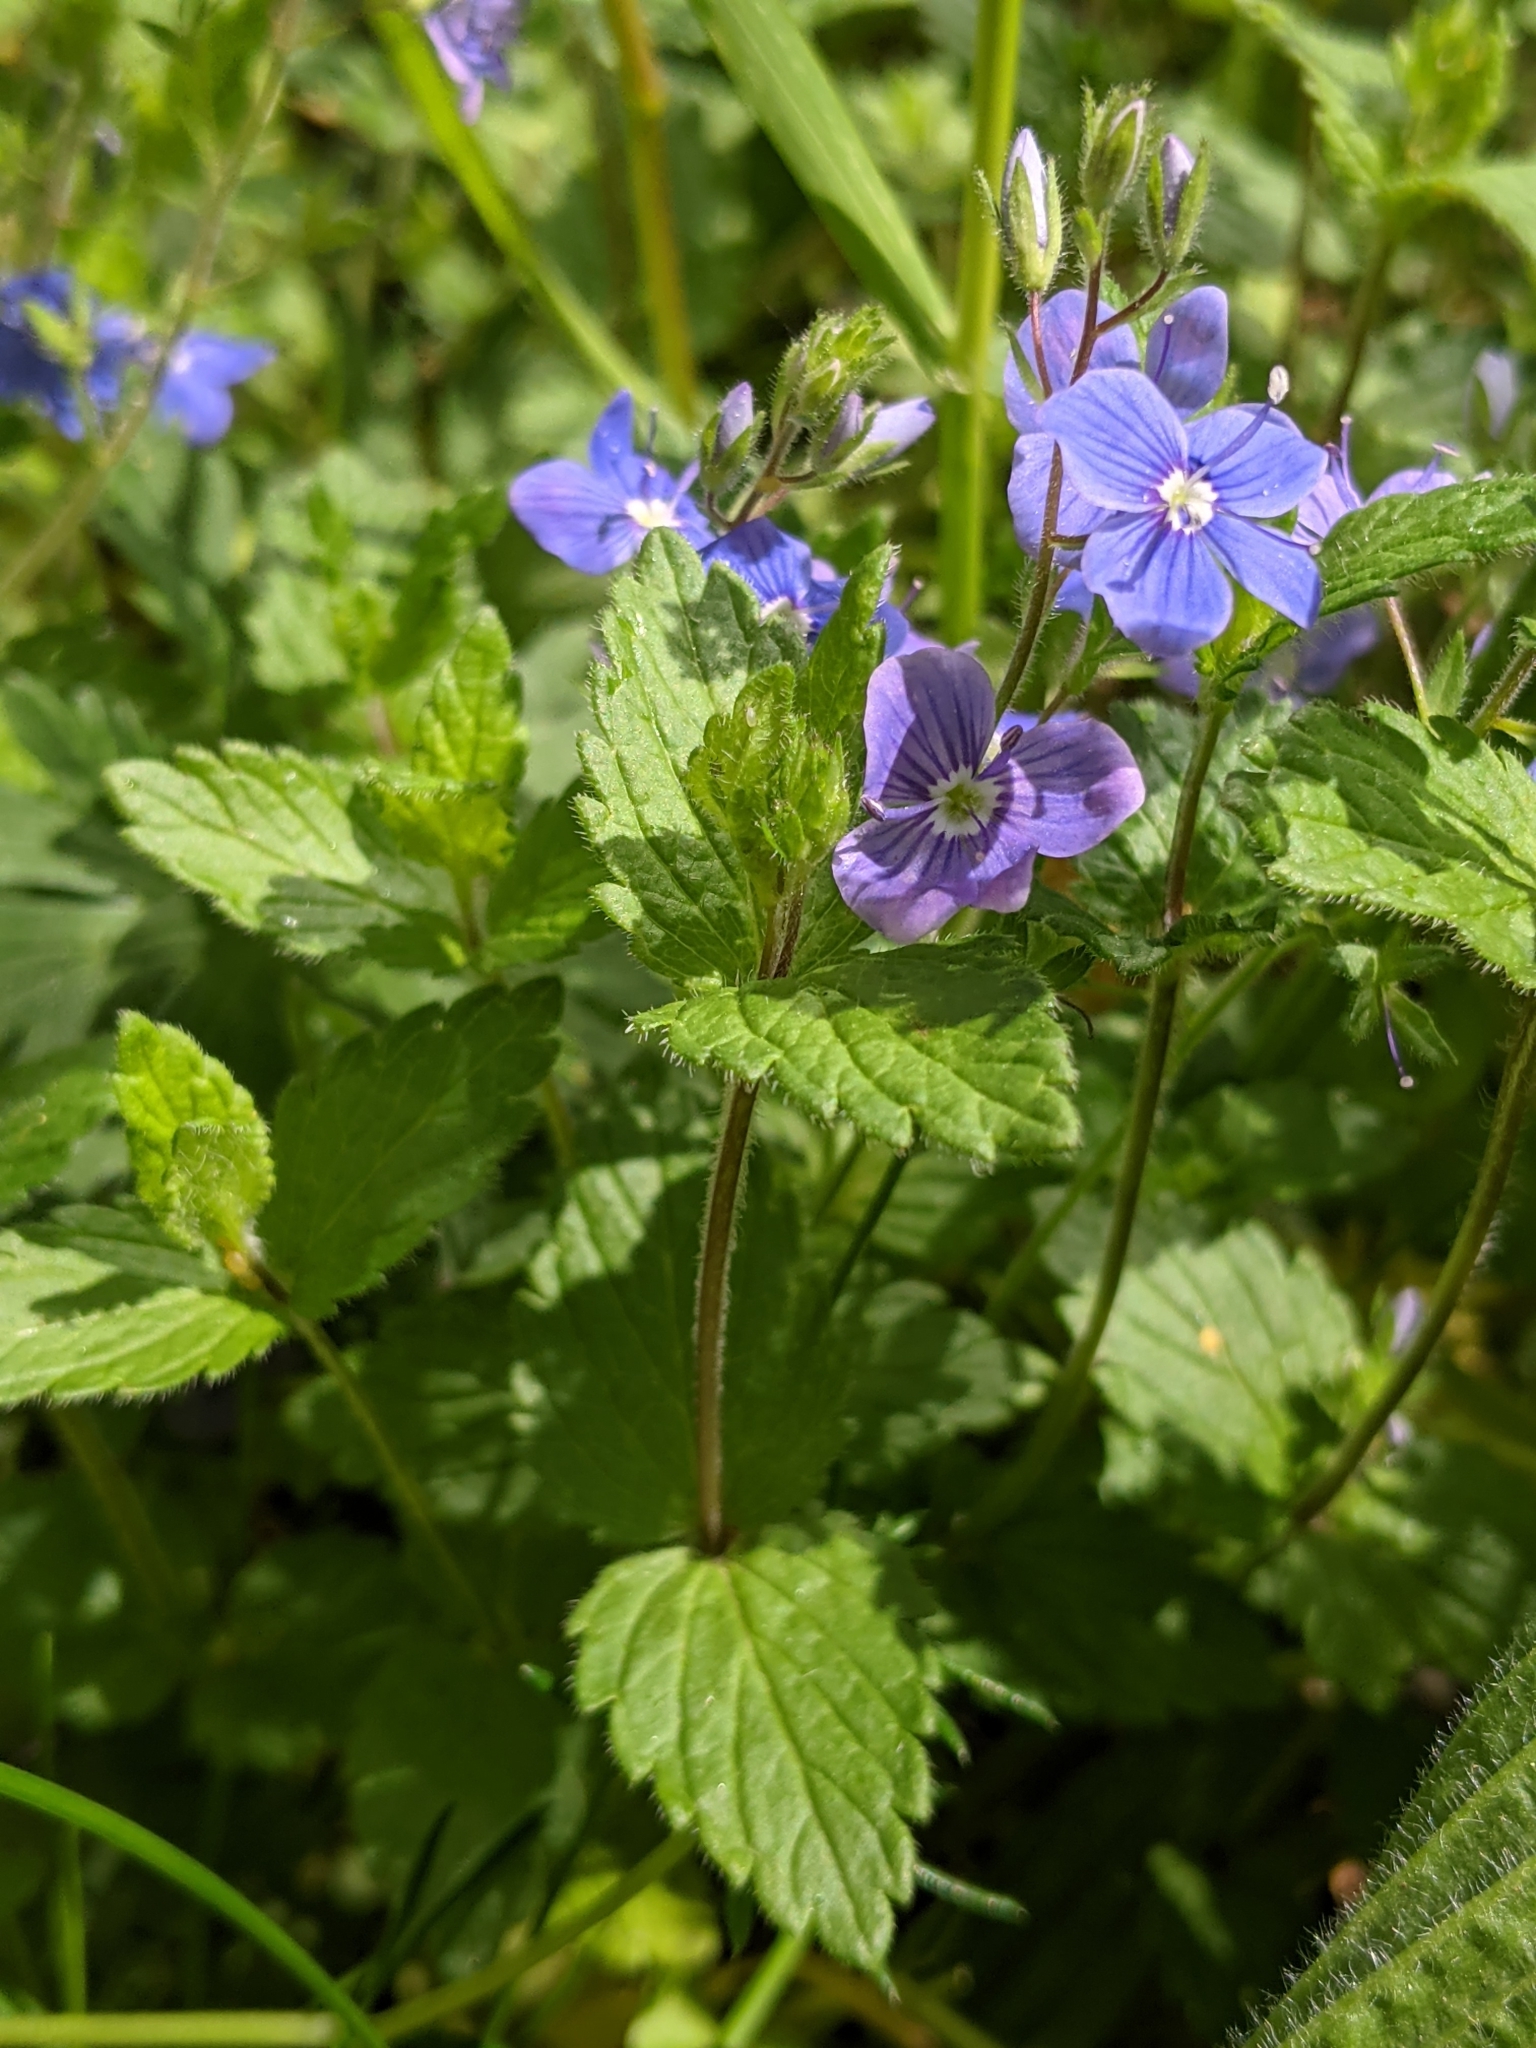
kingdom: Plantae
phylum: Tracheophyta
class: Magnoliopsida
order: Lamiales
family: Plantaginaceae
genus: Veronica
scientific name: Veronica chamaedrys
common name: Germander speedwell
